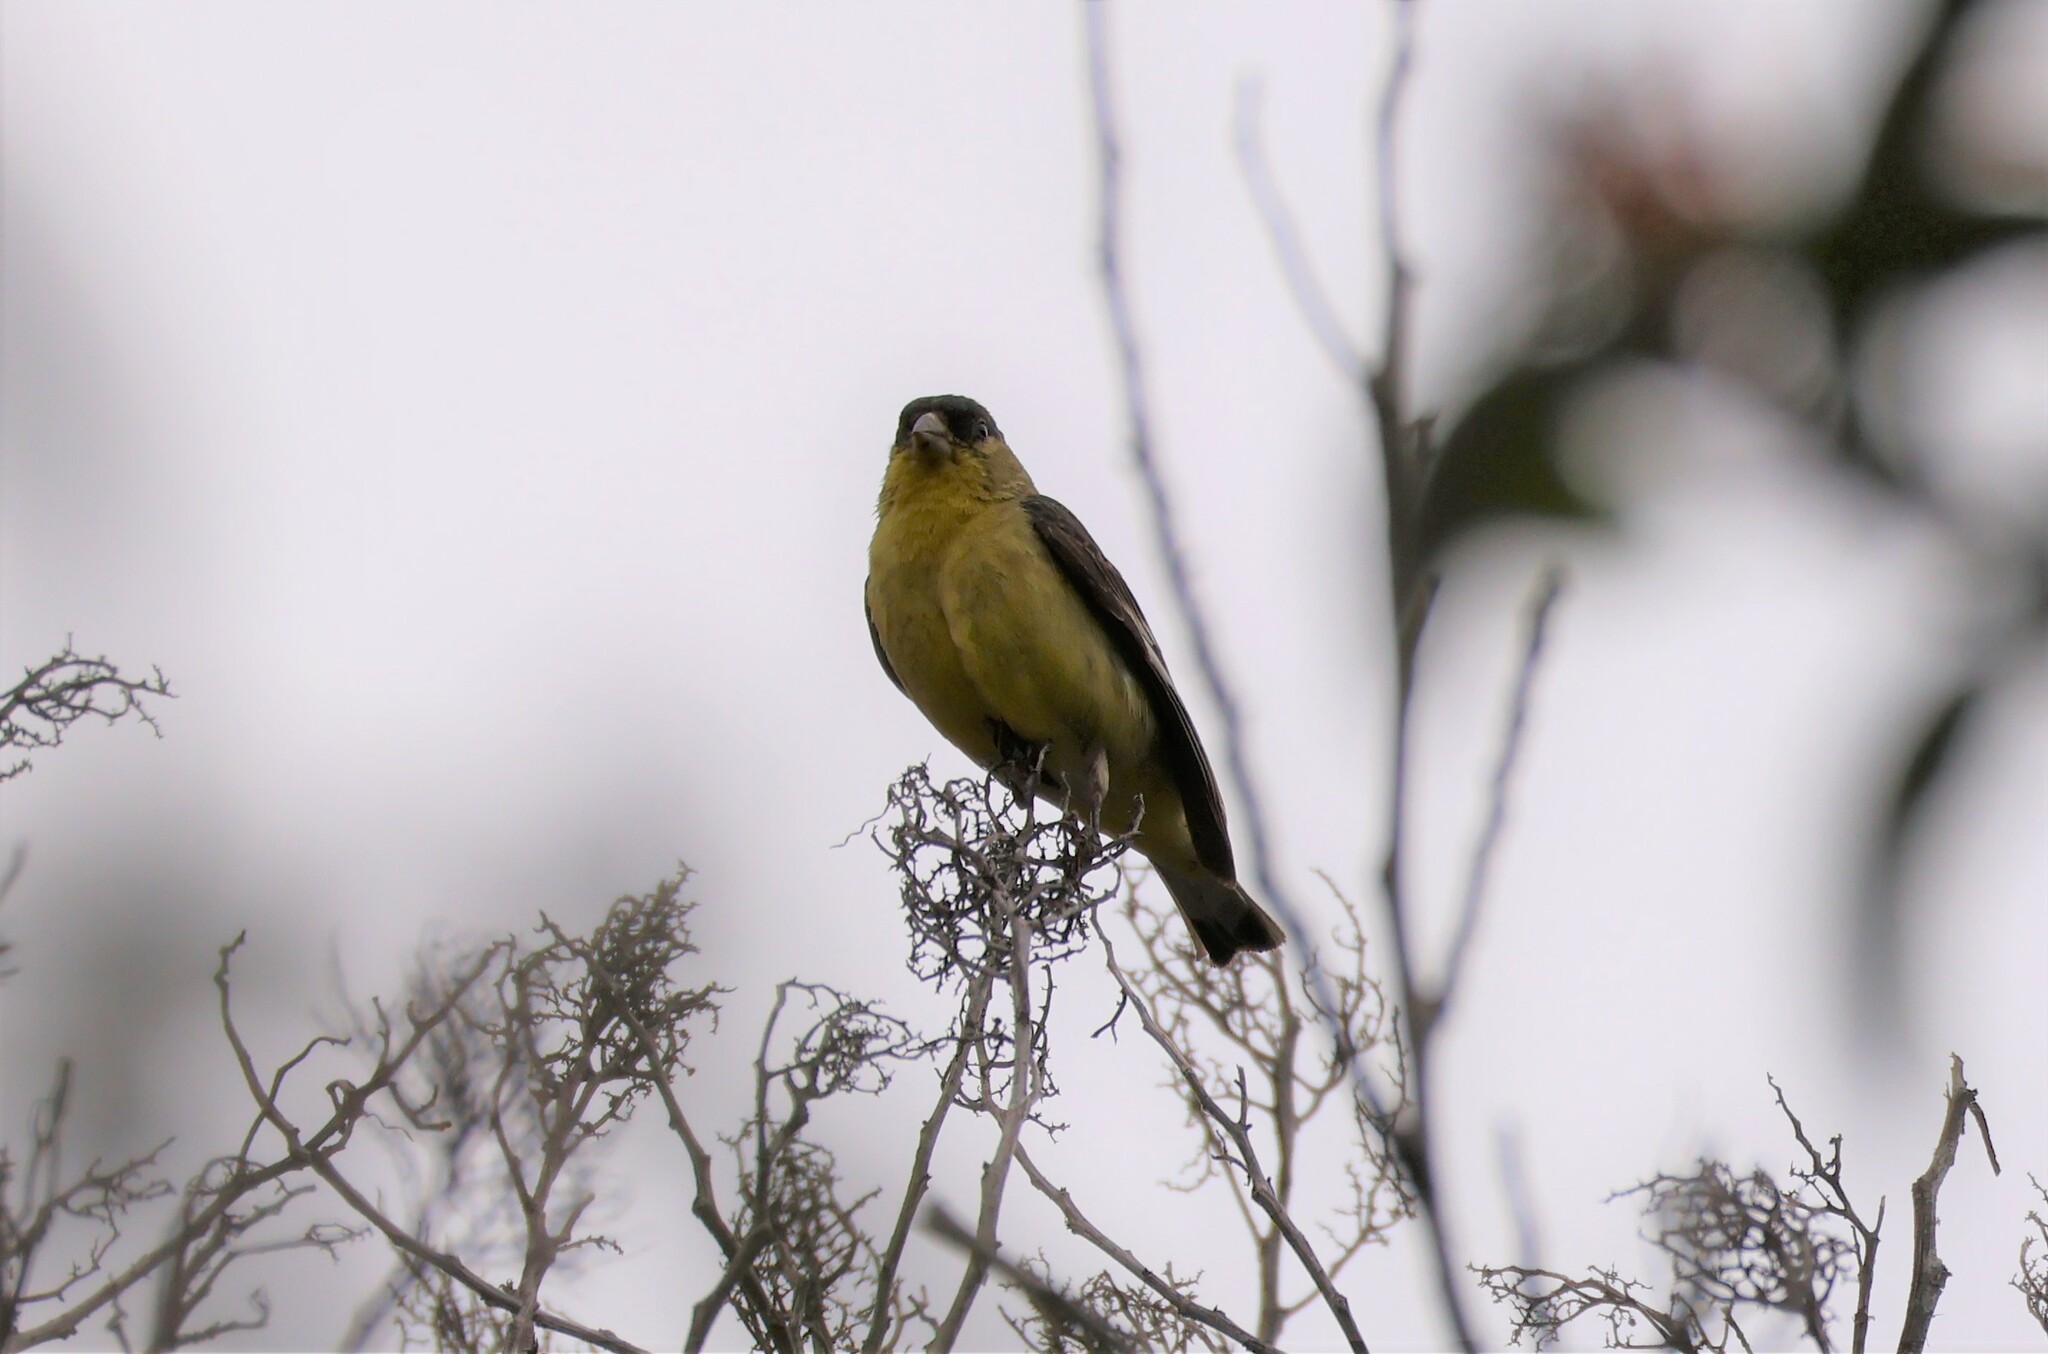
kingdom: Animalia
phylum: Chordata
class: Aves
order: Passeriformes
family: Fringillidae
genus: Spinus
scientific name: Spinus psaltria
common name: Lesser goldfinch
